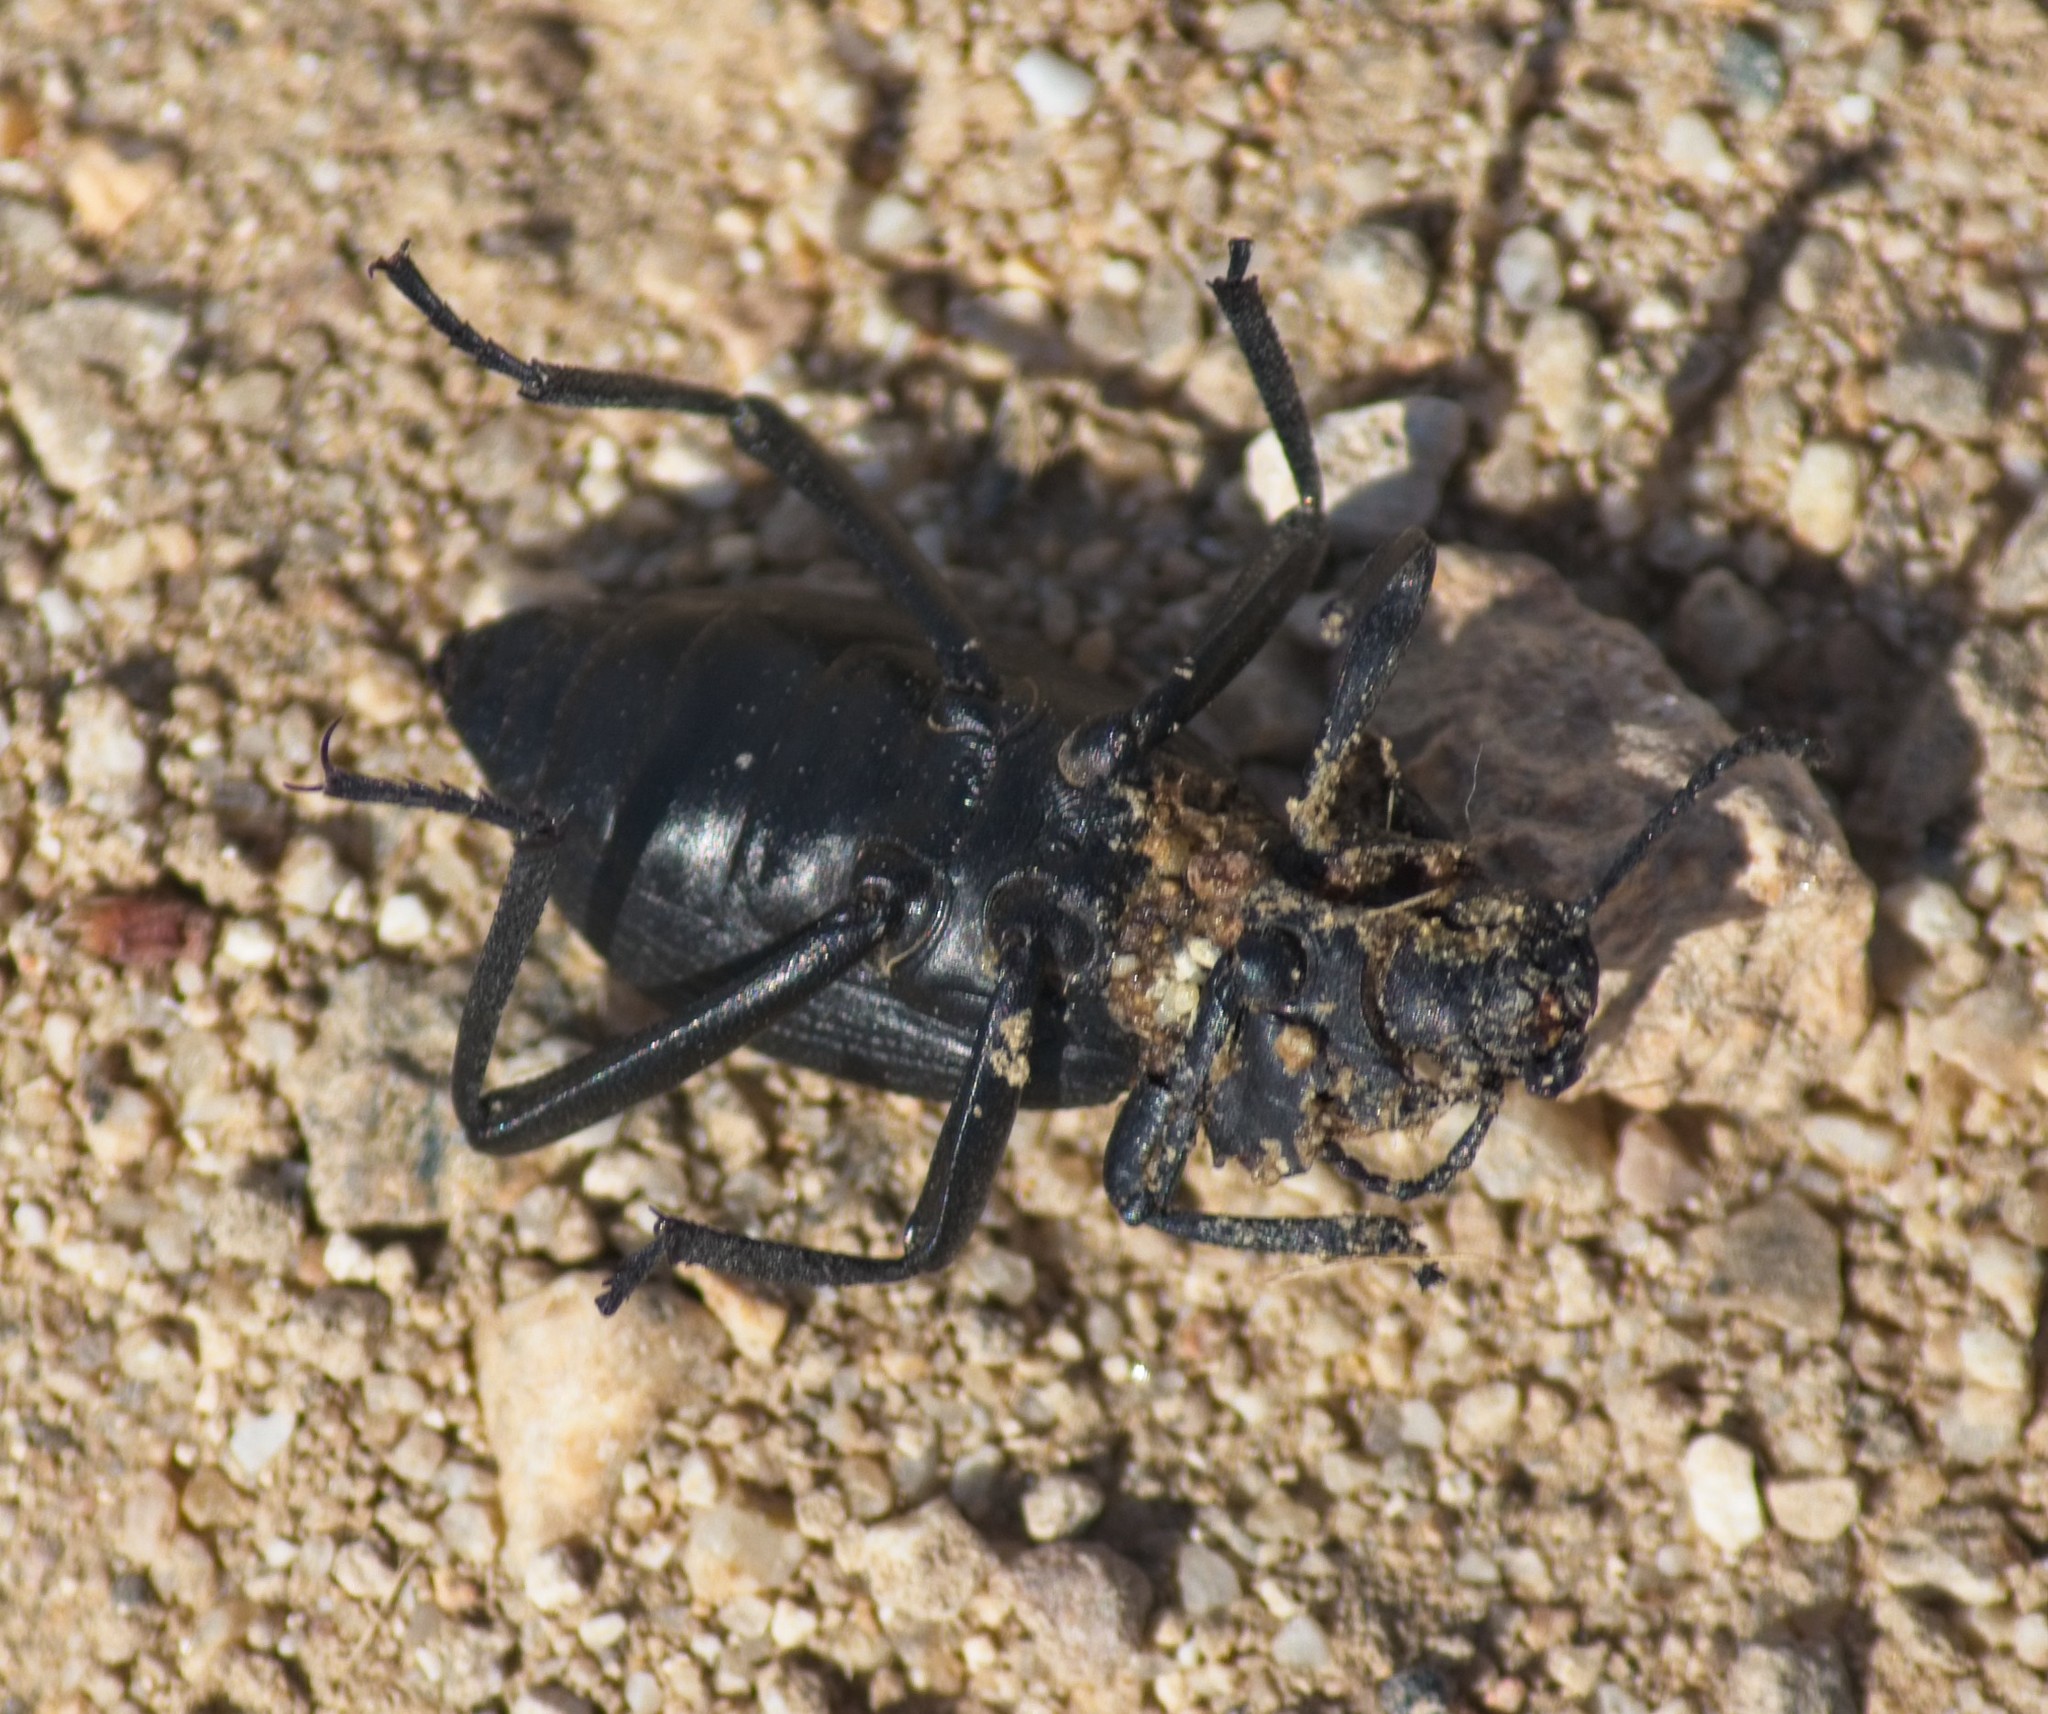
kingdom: Animalia
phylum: Arthropoda
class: Insecta
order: Coleoptera
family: Tenebrionidae
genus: Eleodes
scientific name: Eleodes hispilabris
